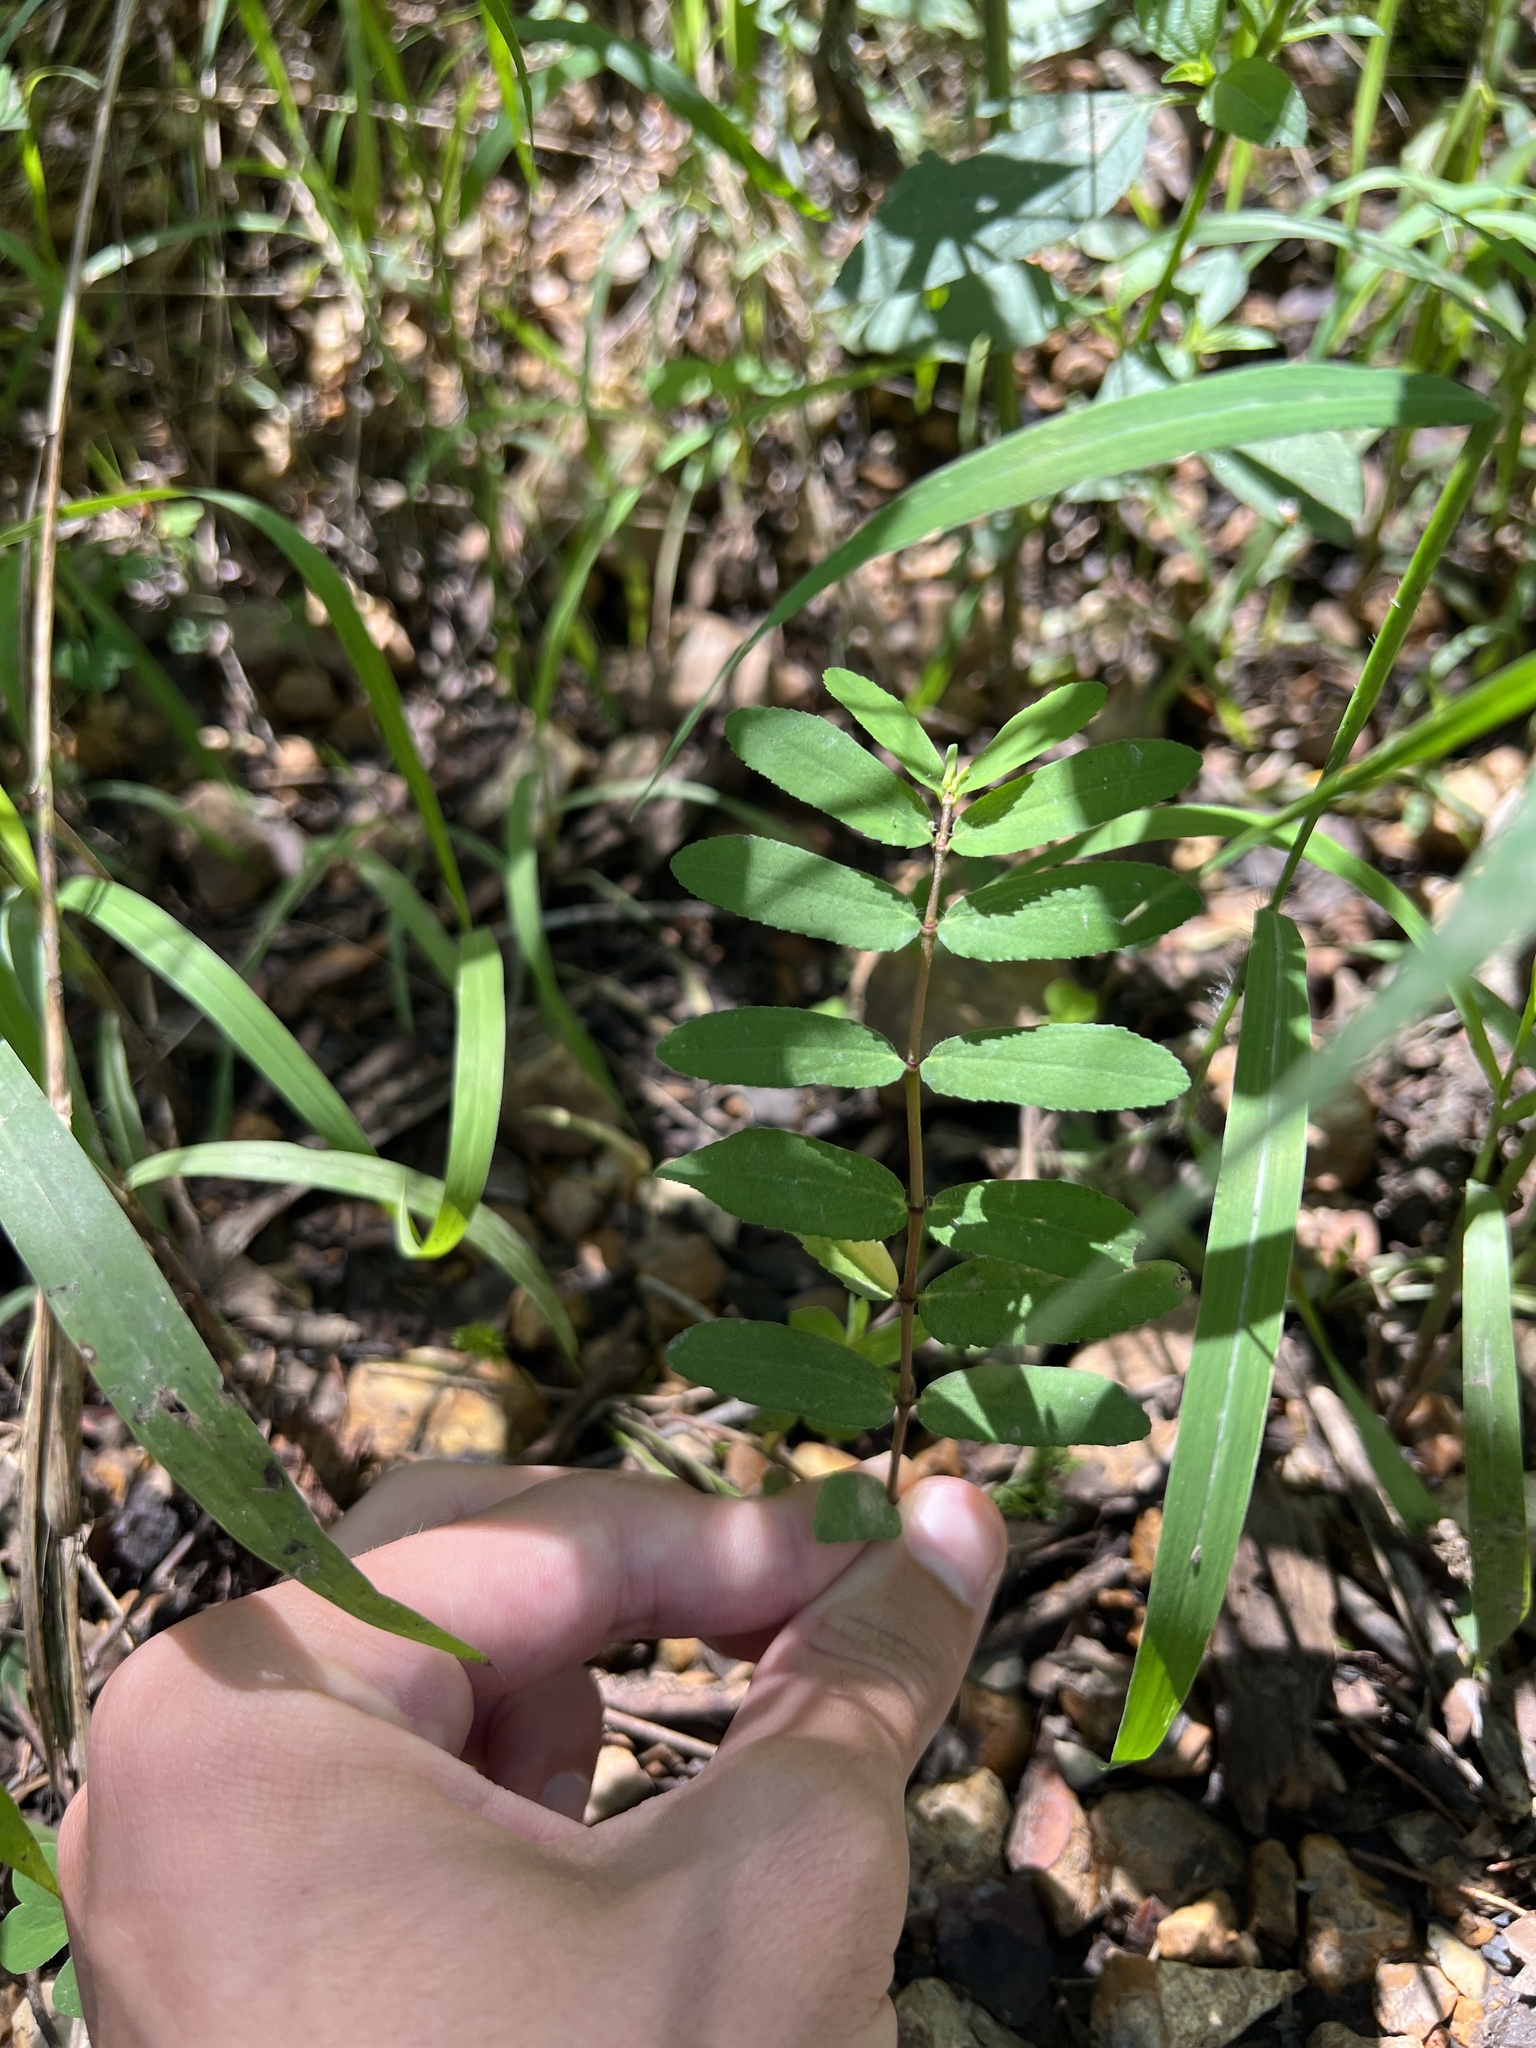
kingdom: Plantae
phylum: Tracheophyta
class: Magnoliopsida
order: Malpighiales
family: Euphorbiaceae
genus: Euphorbia
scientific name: Euphorbia nutans
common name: Eyebane
